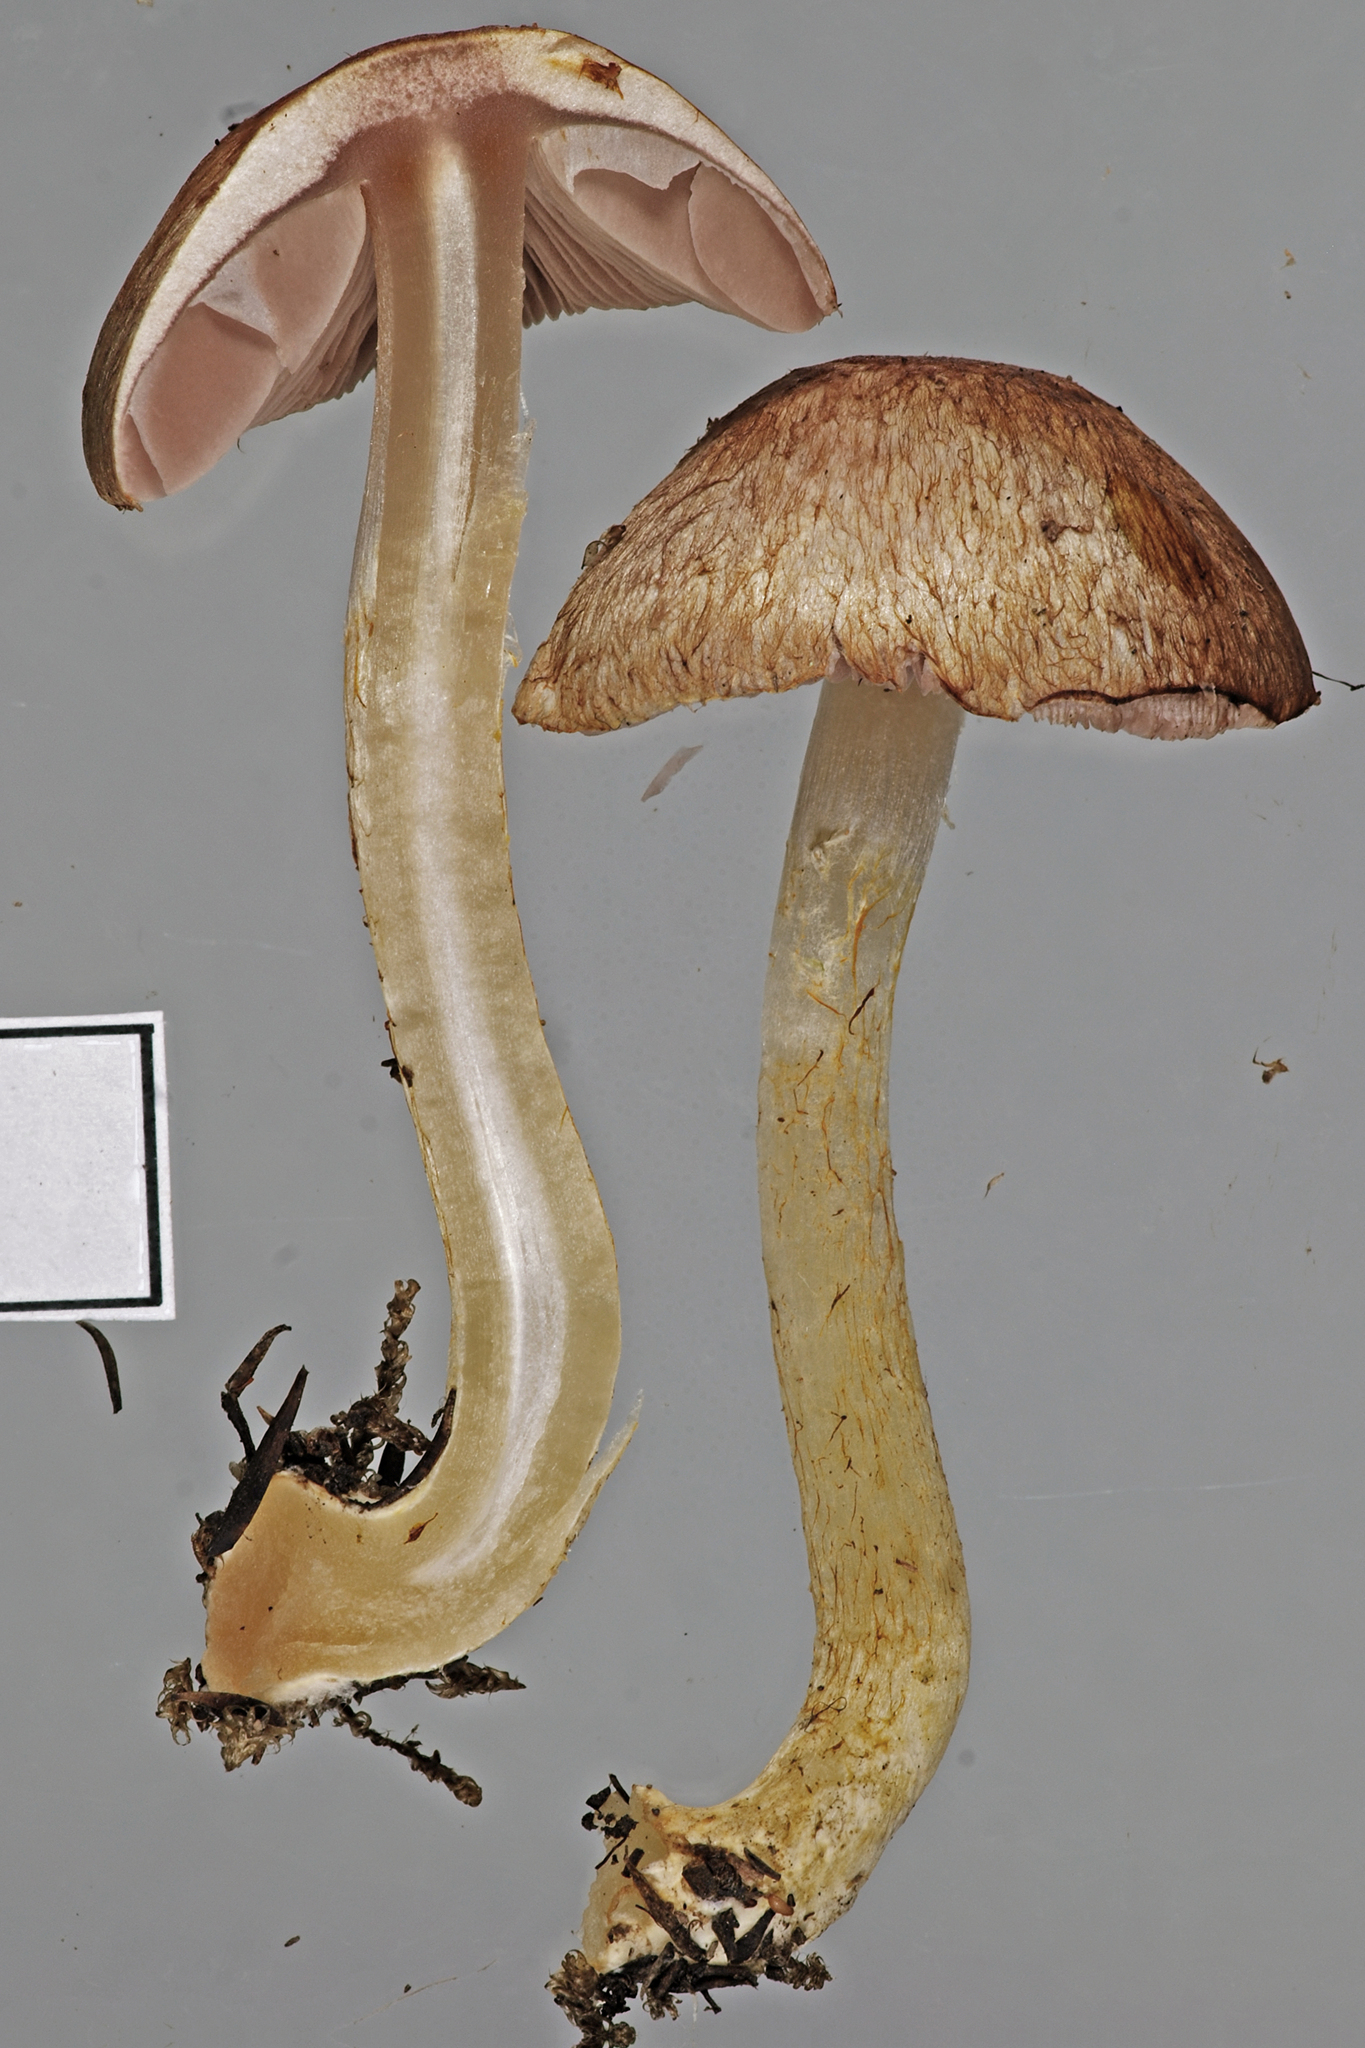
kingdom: Fungi
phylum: Basidiomycota
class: Agaricomycetes
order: Agaricales
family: Agaricaceae
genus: Agaricus
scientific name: Agaricus campbellensis
